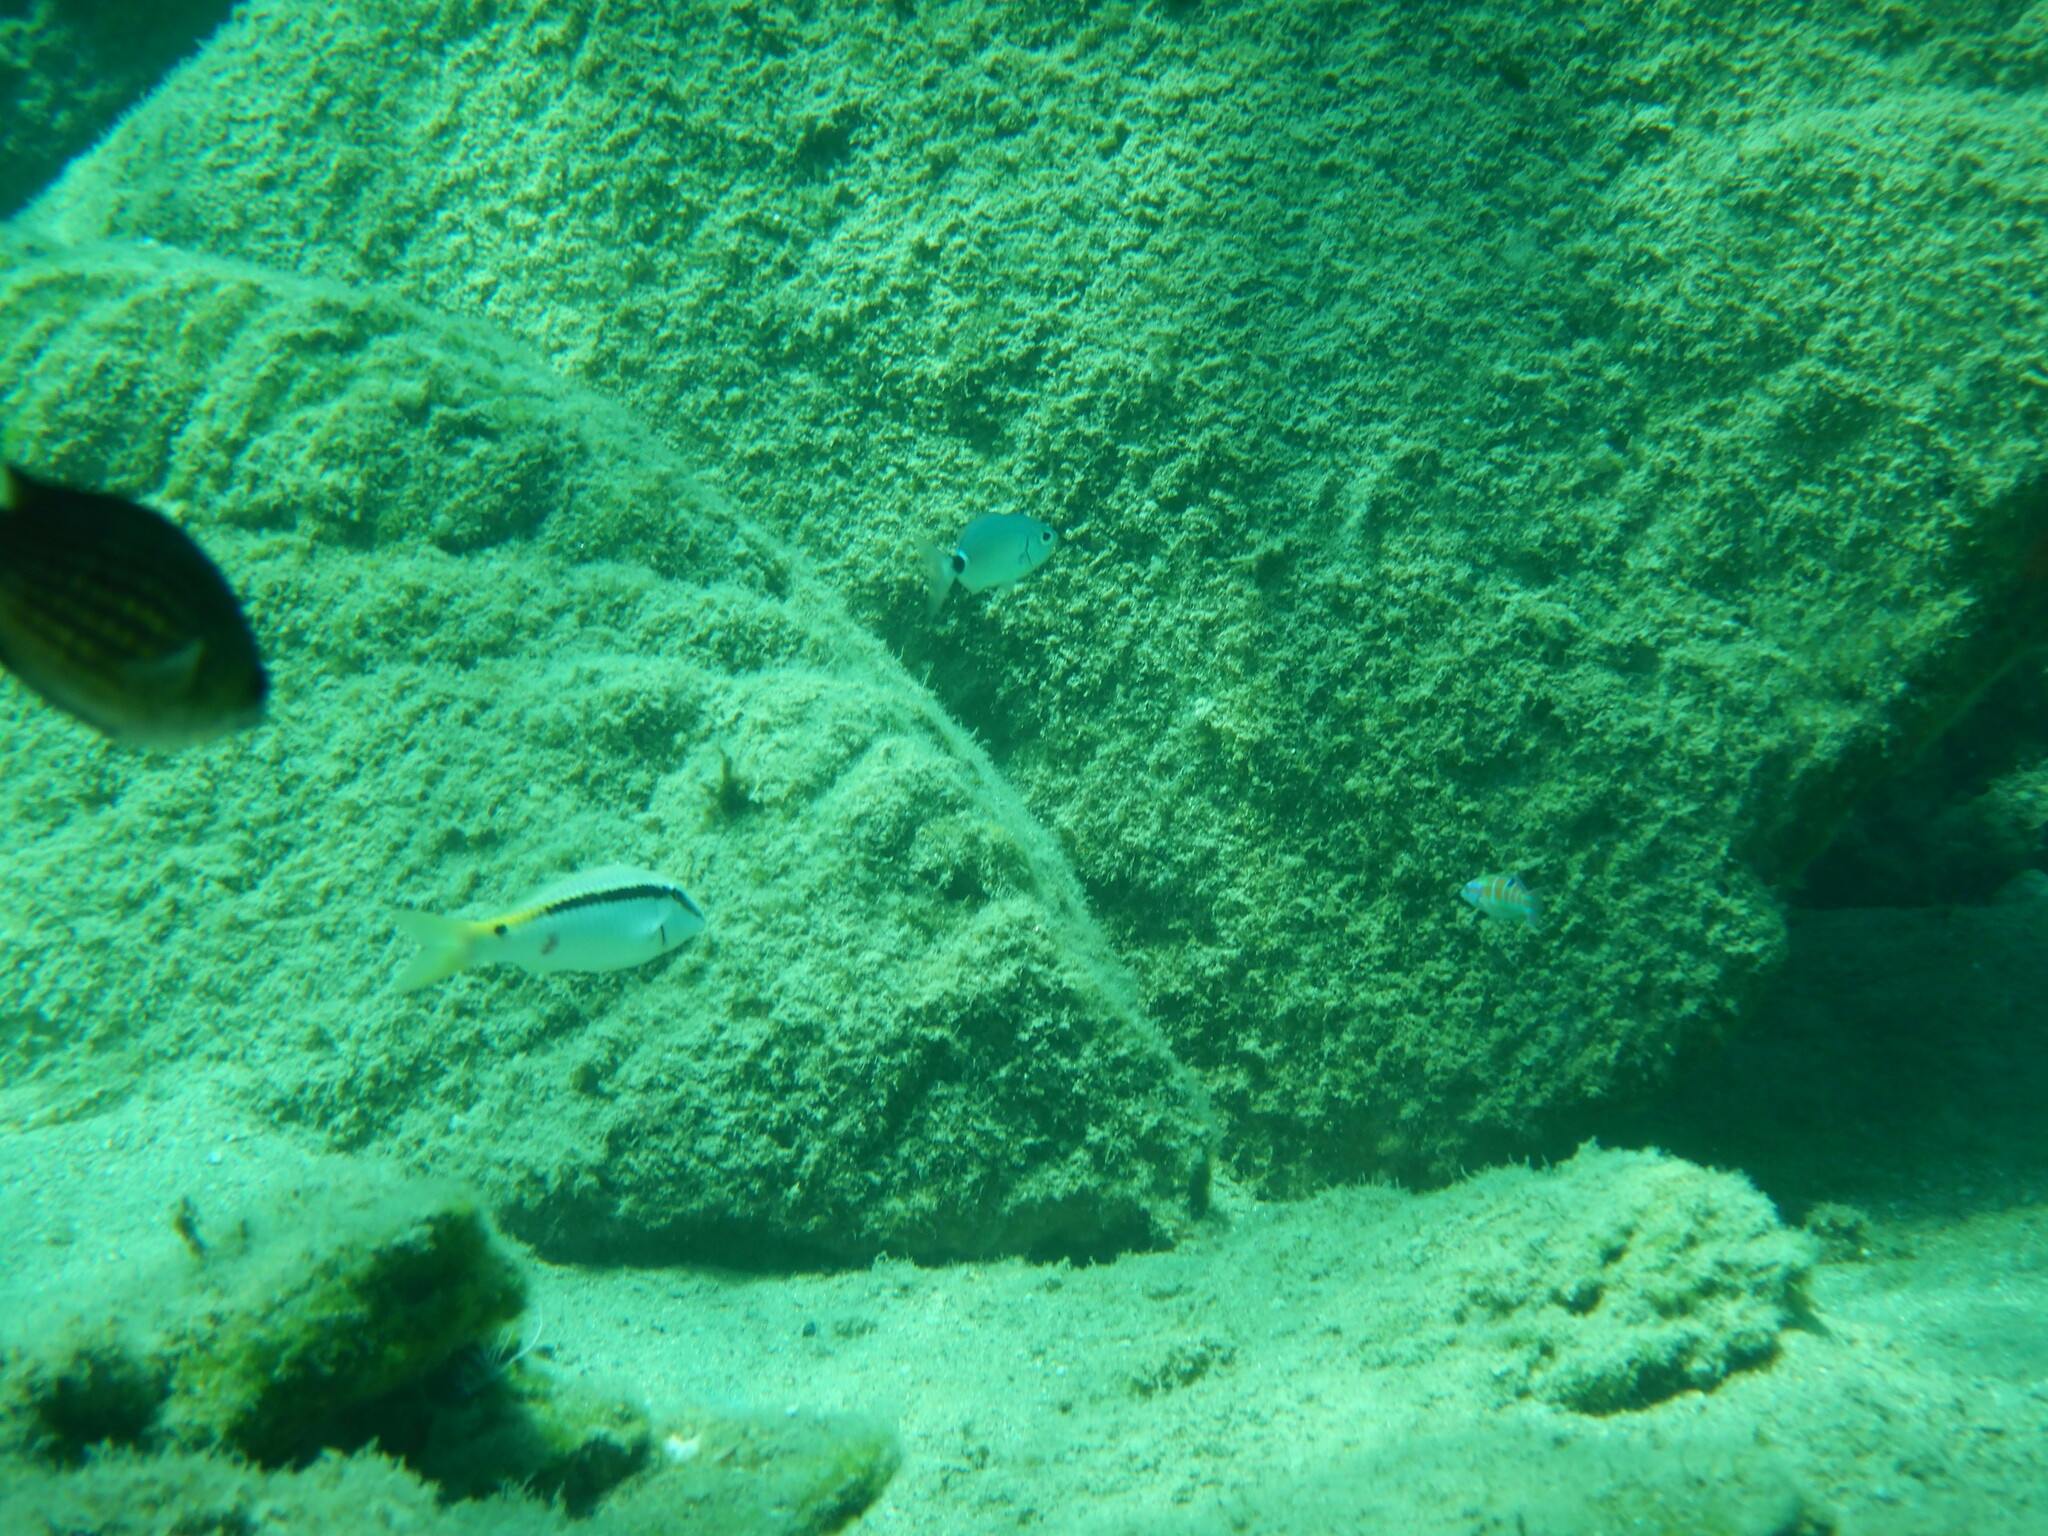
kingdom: Animalia
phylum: Chordata
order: Perciformes
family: Mullidae
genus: Parupeneus
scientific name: Parupeneus forsskali
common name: Red sea goatfish
